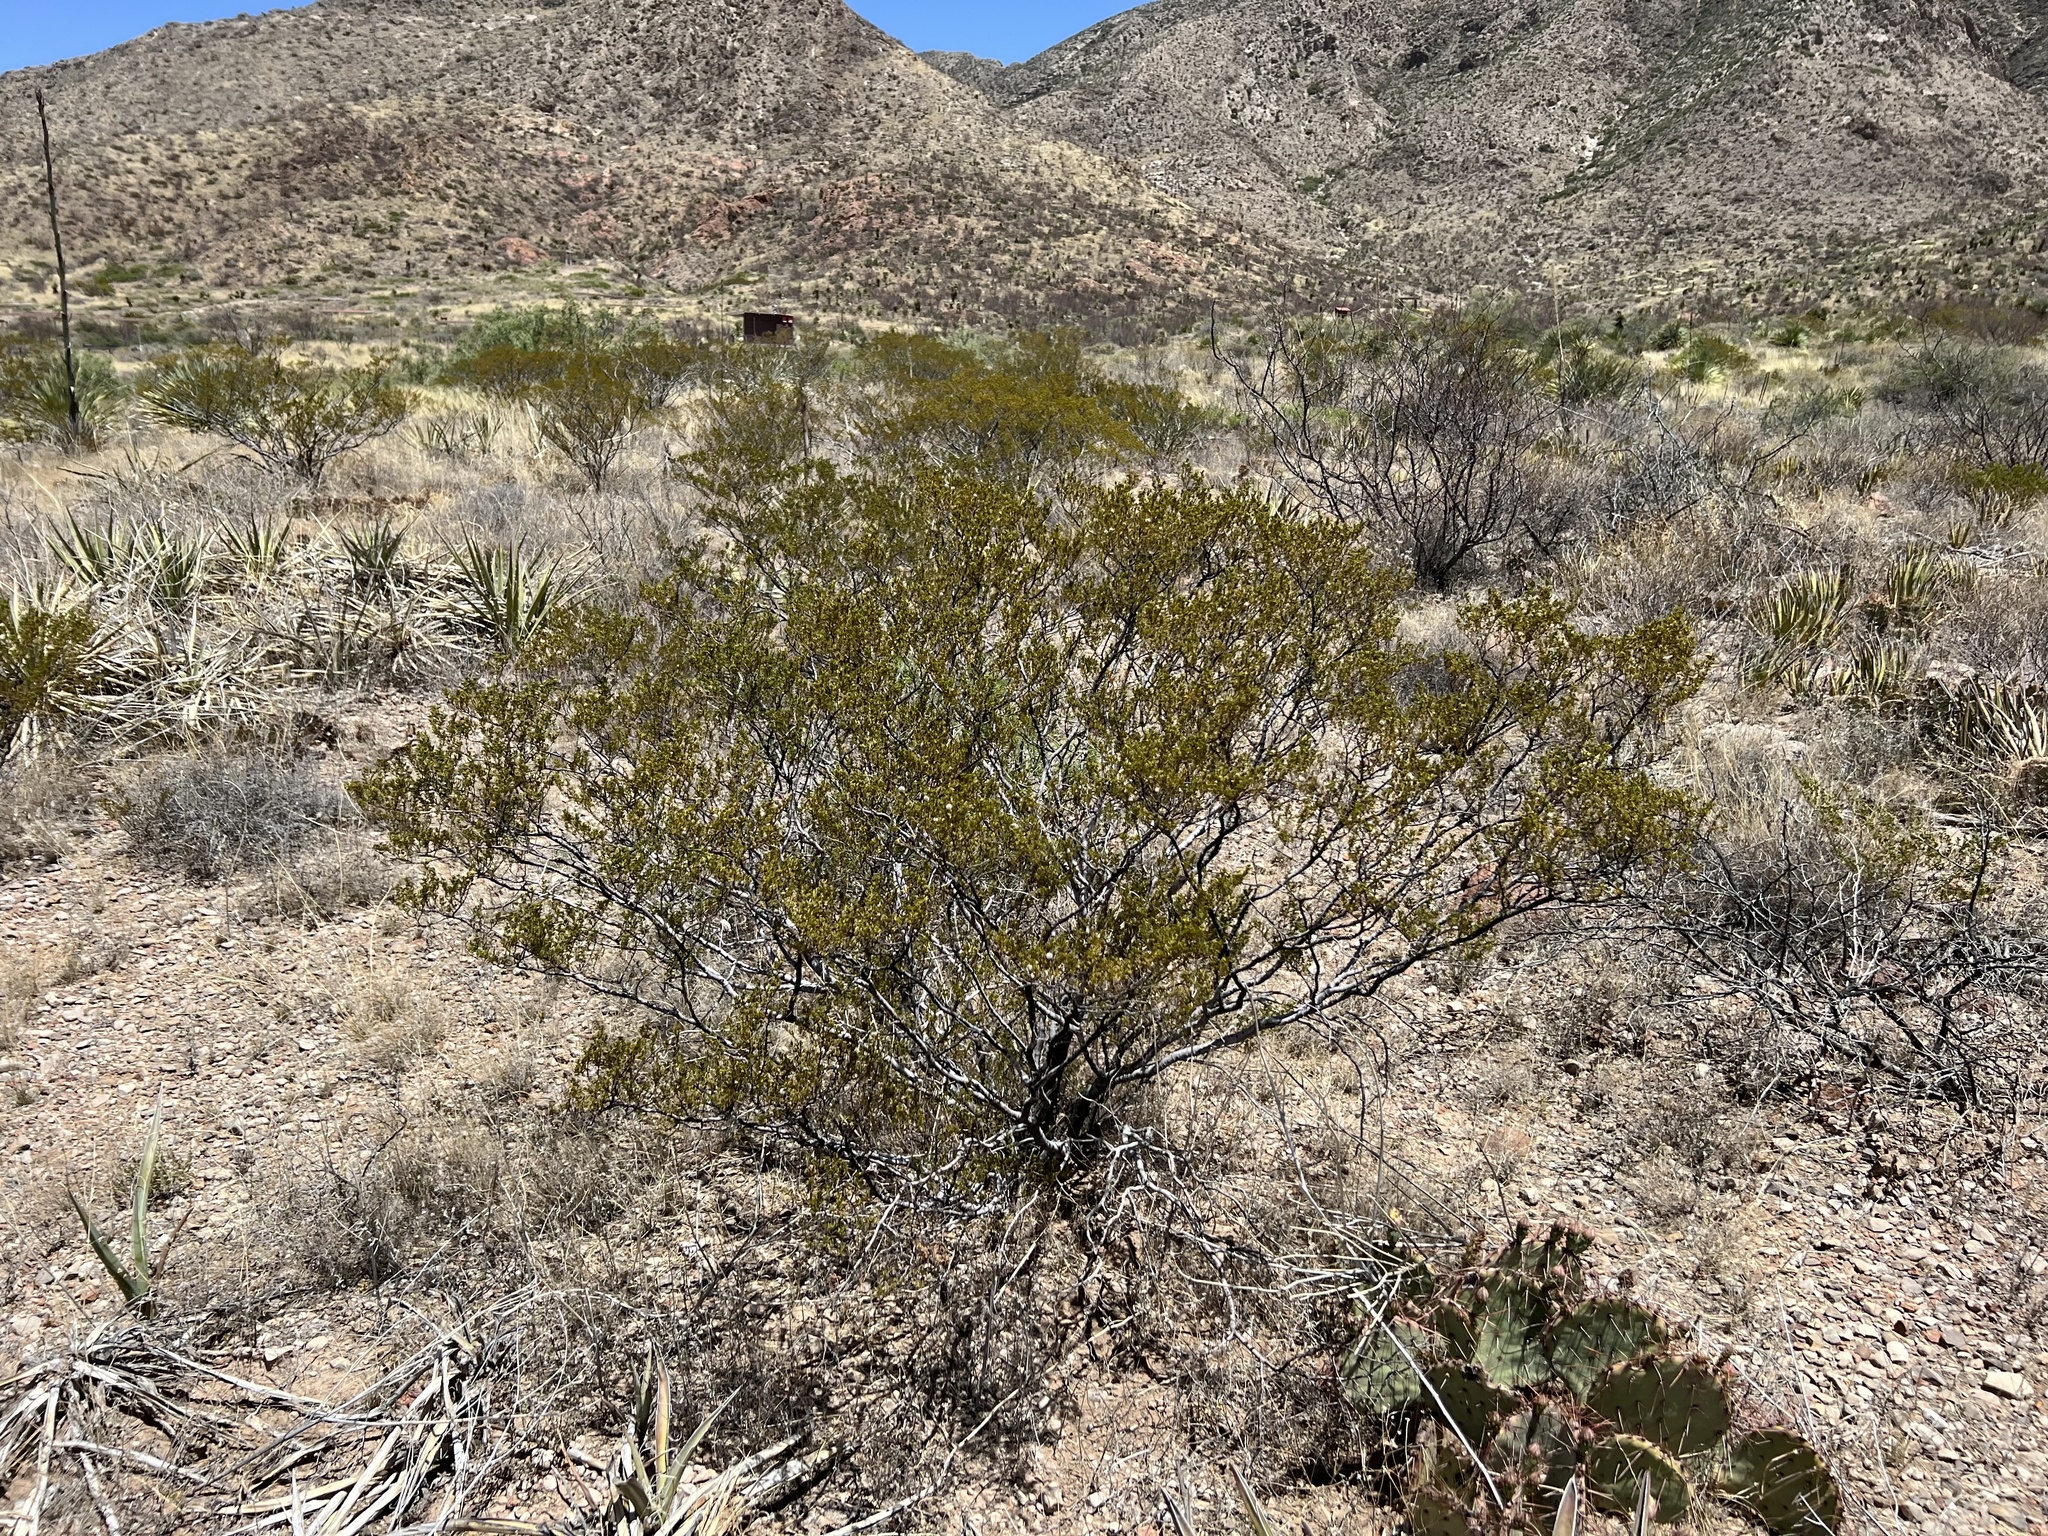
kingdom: Plantae
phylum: Tracheophyta
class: Magnoliopsida
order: Zygophyllales
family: Zygophyllaceae
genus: Larrea
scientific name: Larrea tridentata
